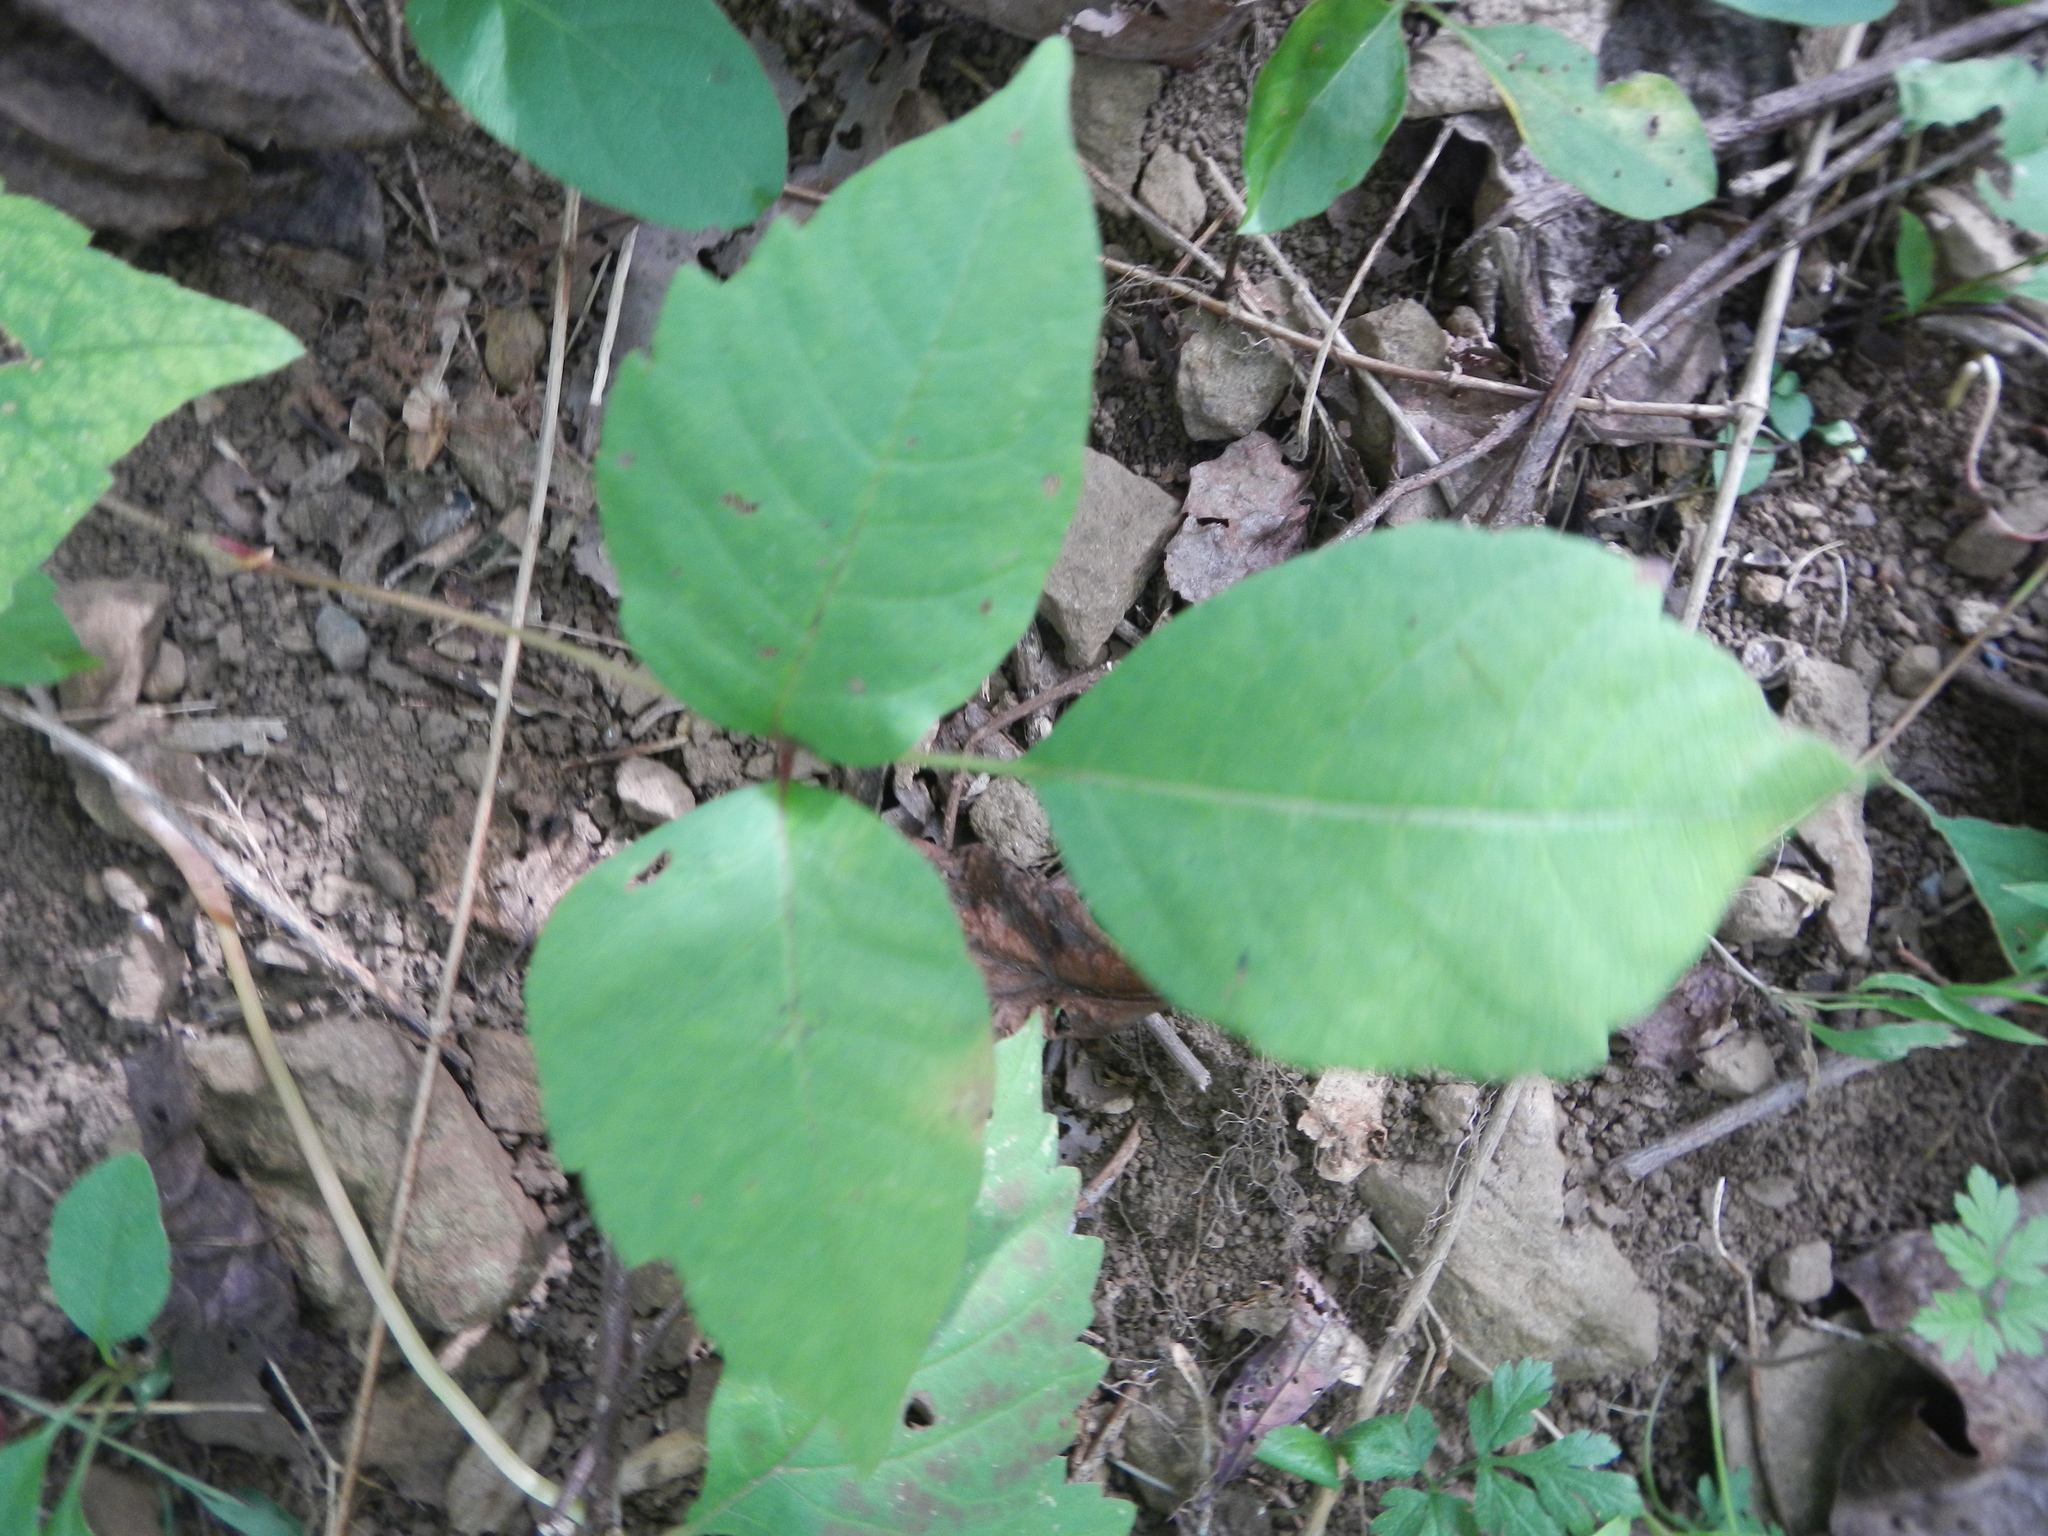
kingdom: Plantae
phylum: Tracheophyta
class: Magnoliopsida
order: Sapindales
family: Anacardiaceae
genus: Toxicodendron
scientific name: Toxicodendron radicans
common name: Poison ivy
